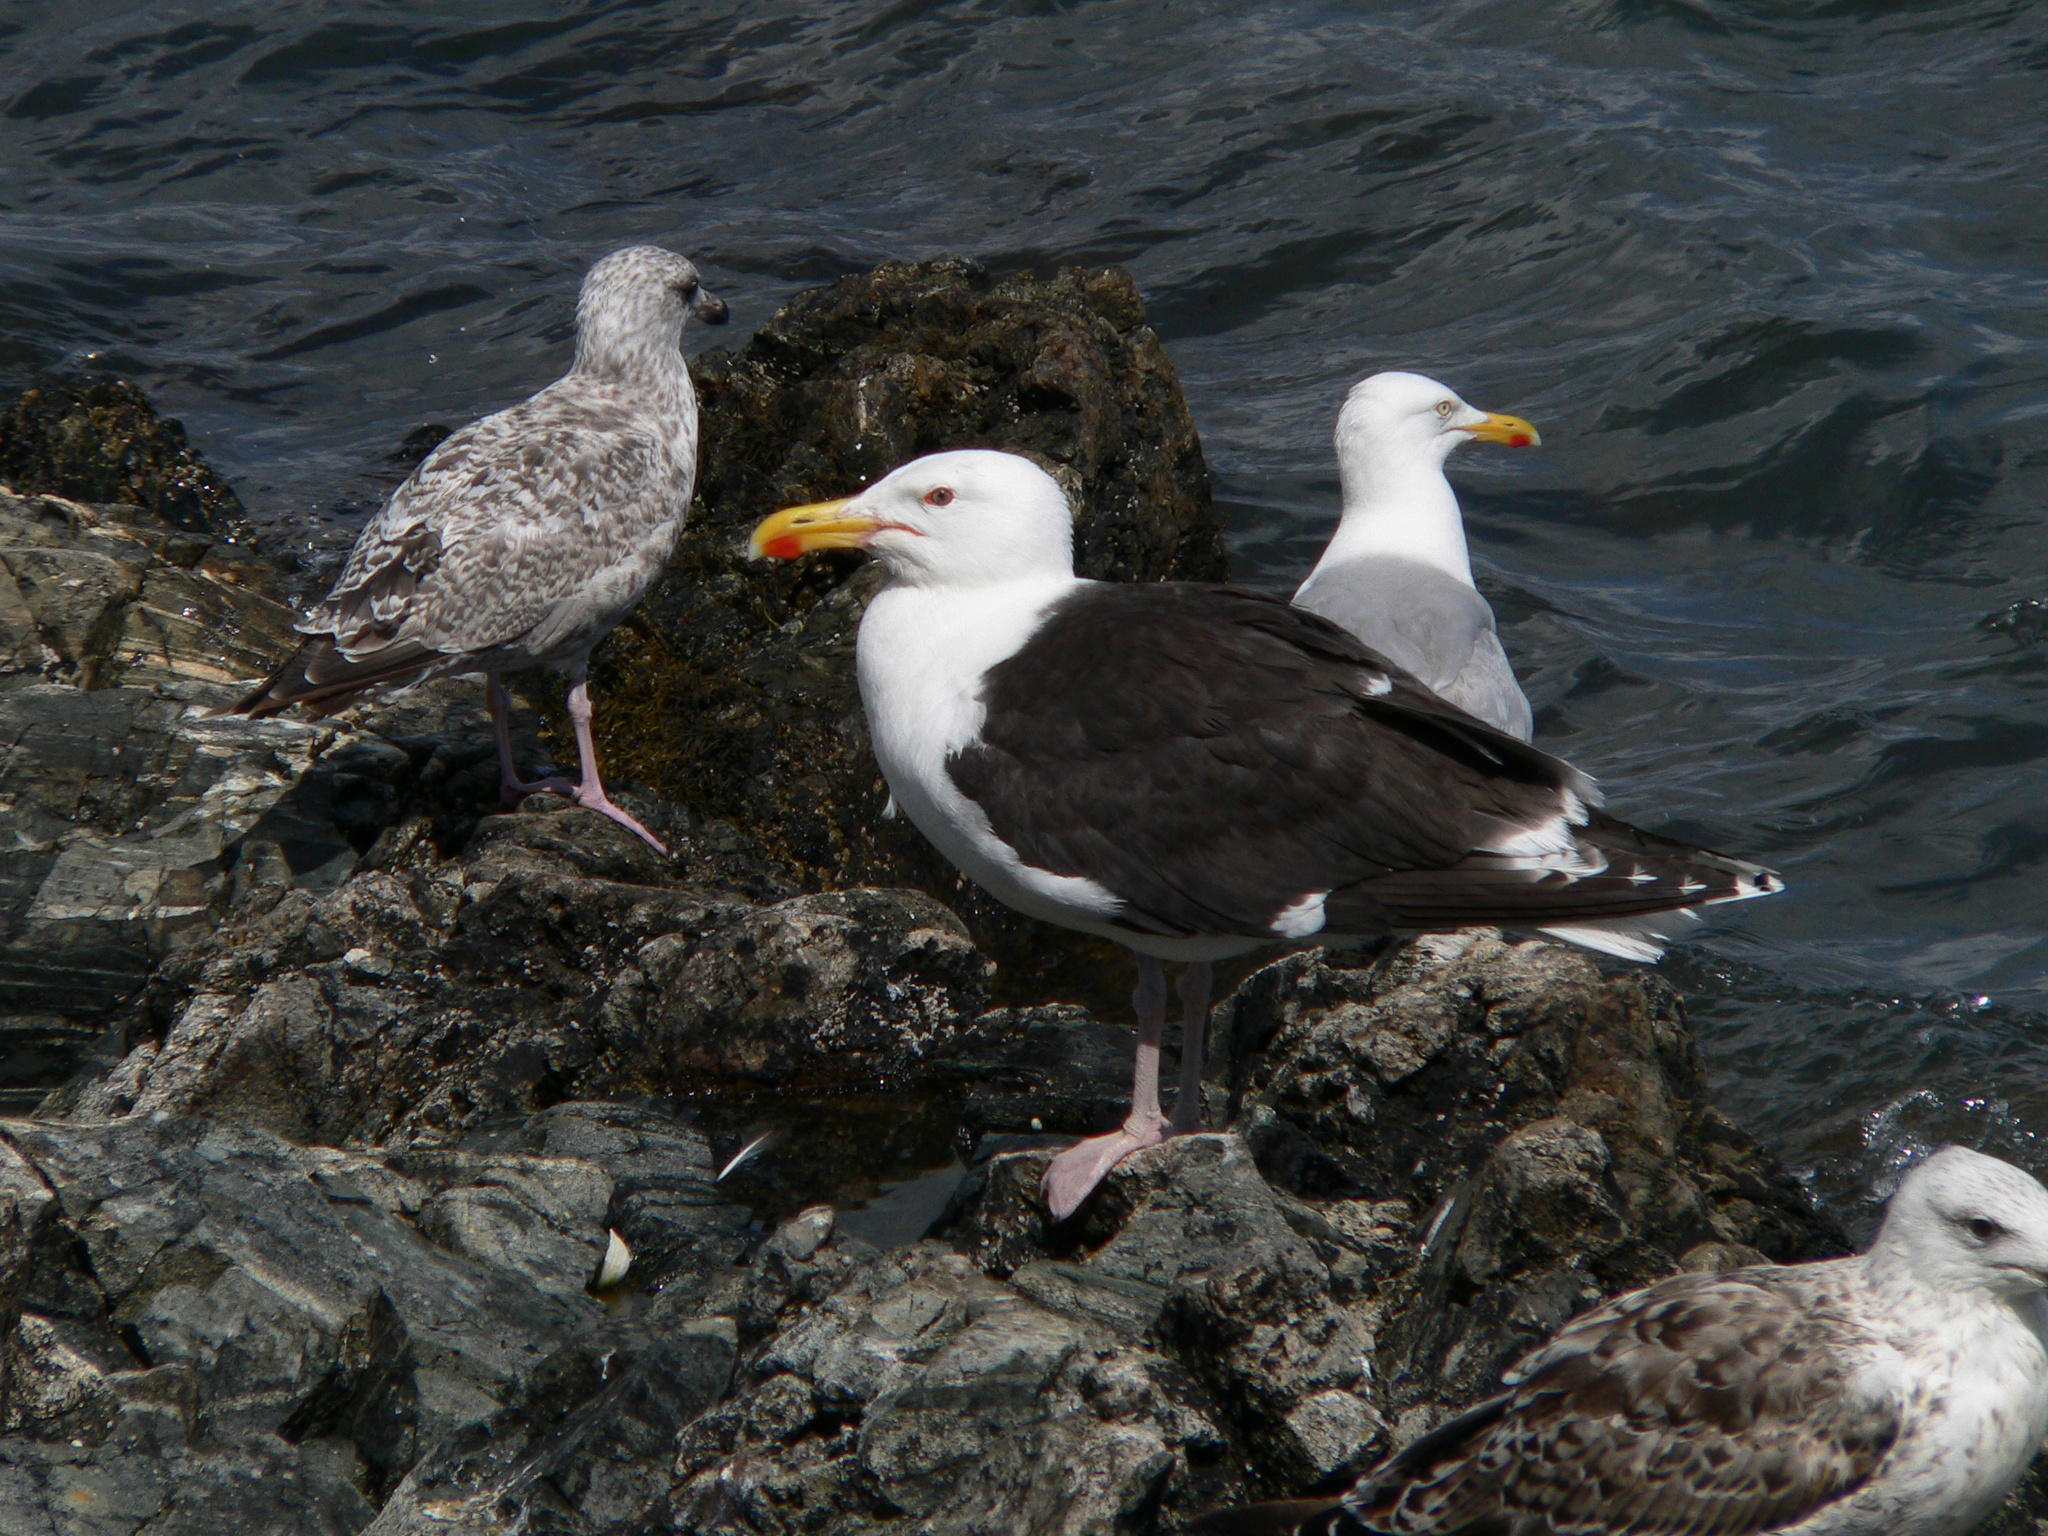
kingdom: Animalia
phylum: Chordata
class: Aves
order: Charadriiformes
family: Laridae
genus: Larus
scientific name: Larus marinus
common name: Great black-backed gull
